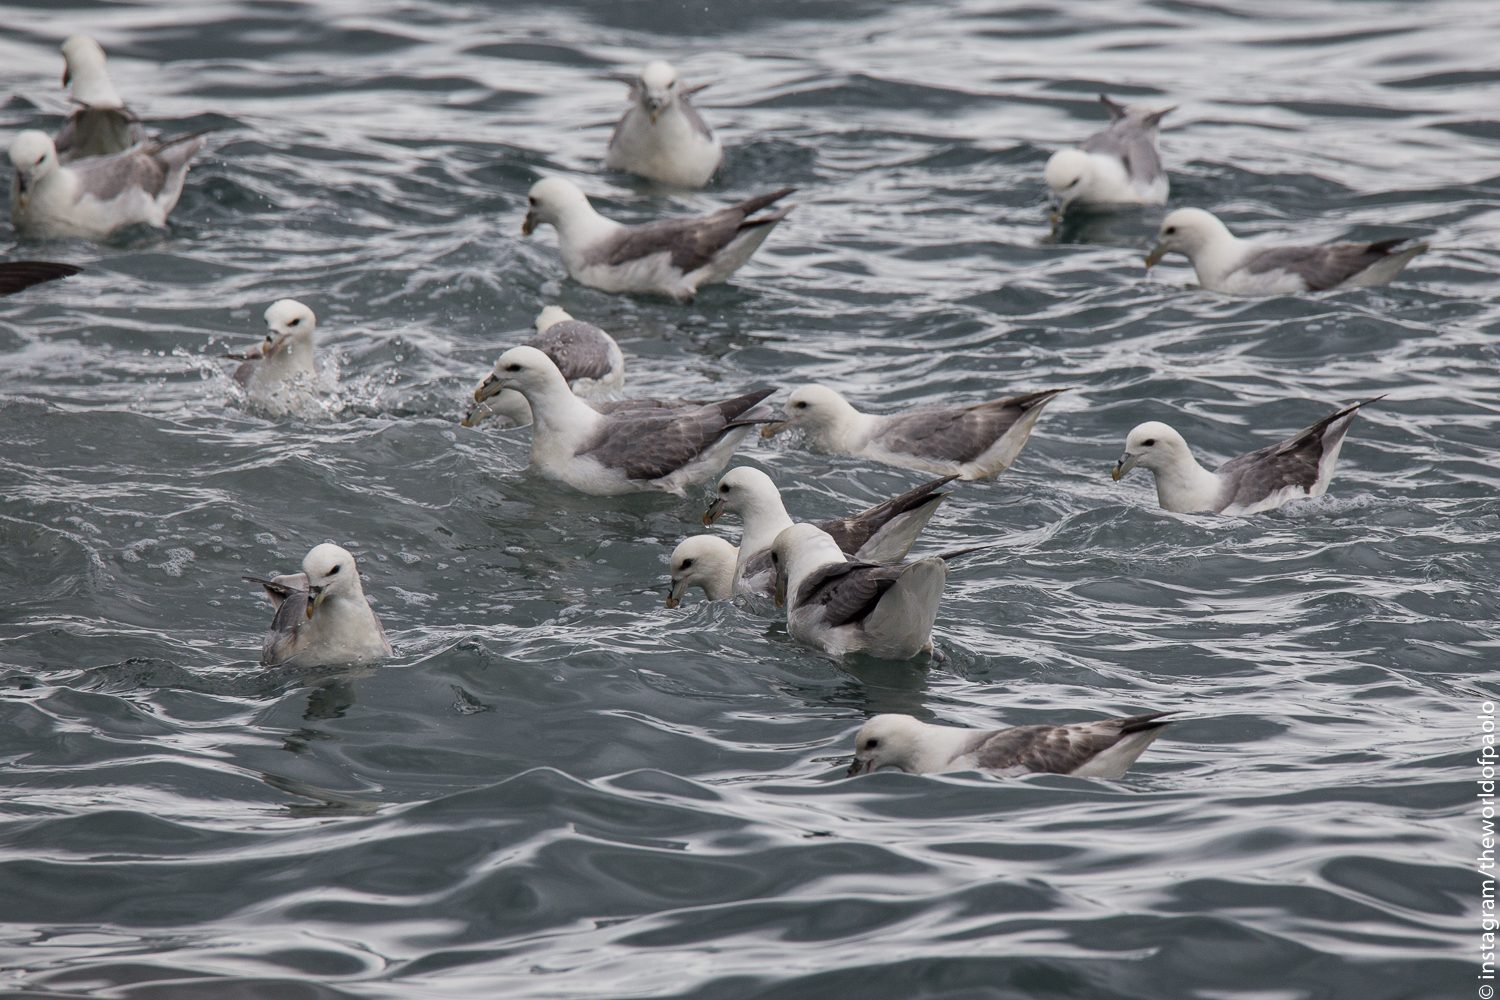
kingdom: Animalia
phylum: Chordata
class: Aves
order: Procellariiformes
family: Procellariidae
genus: Fulmarus
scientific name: Fulmarus glacialis
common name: Northern fulmar
